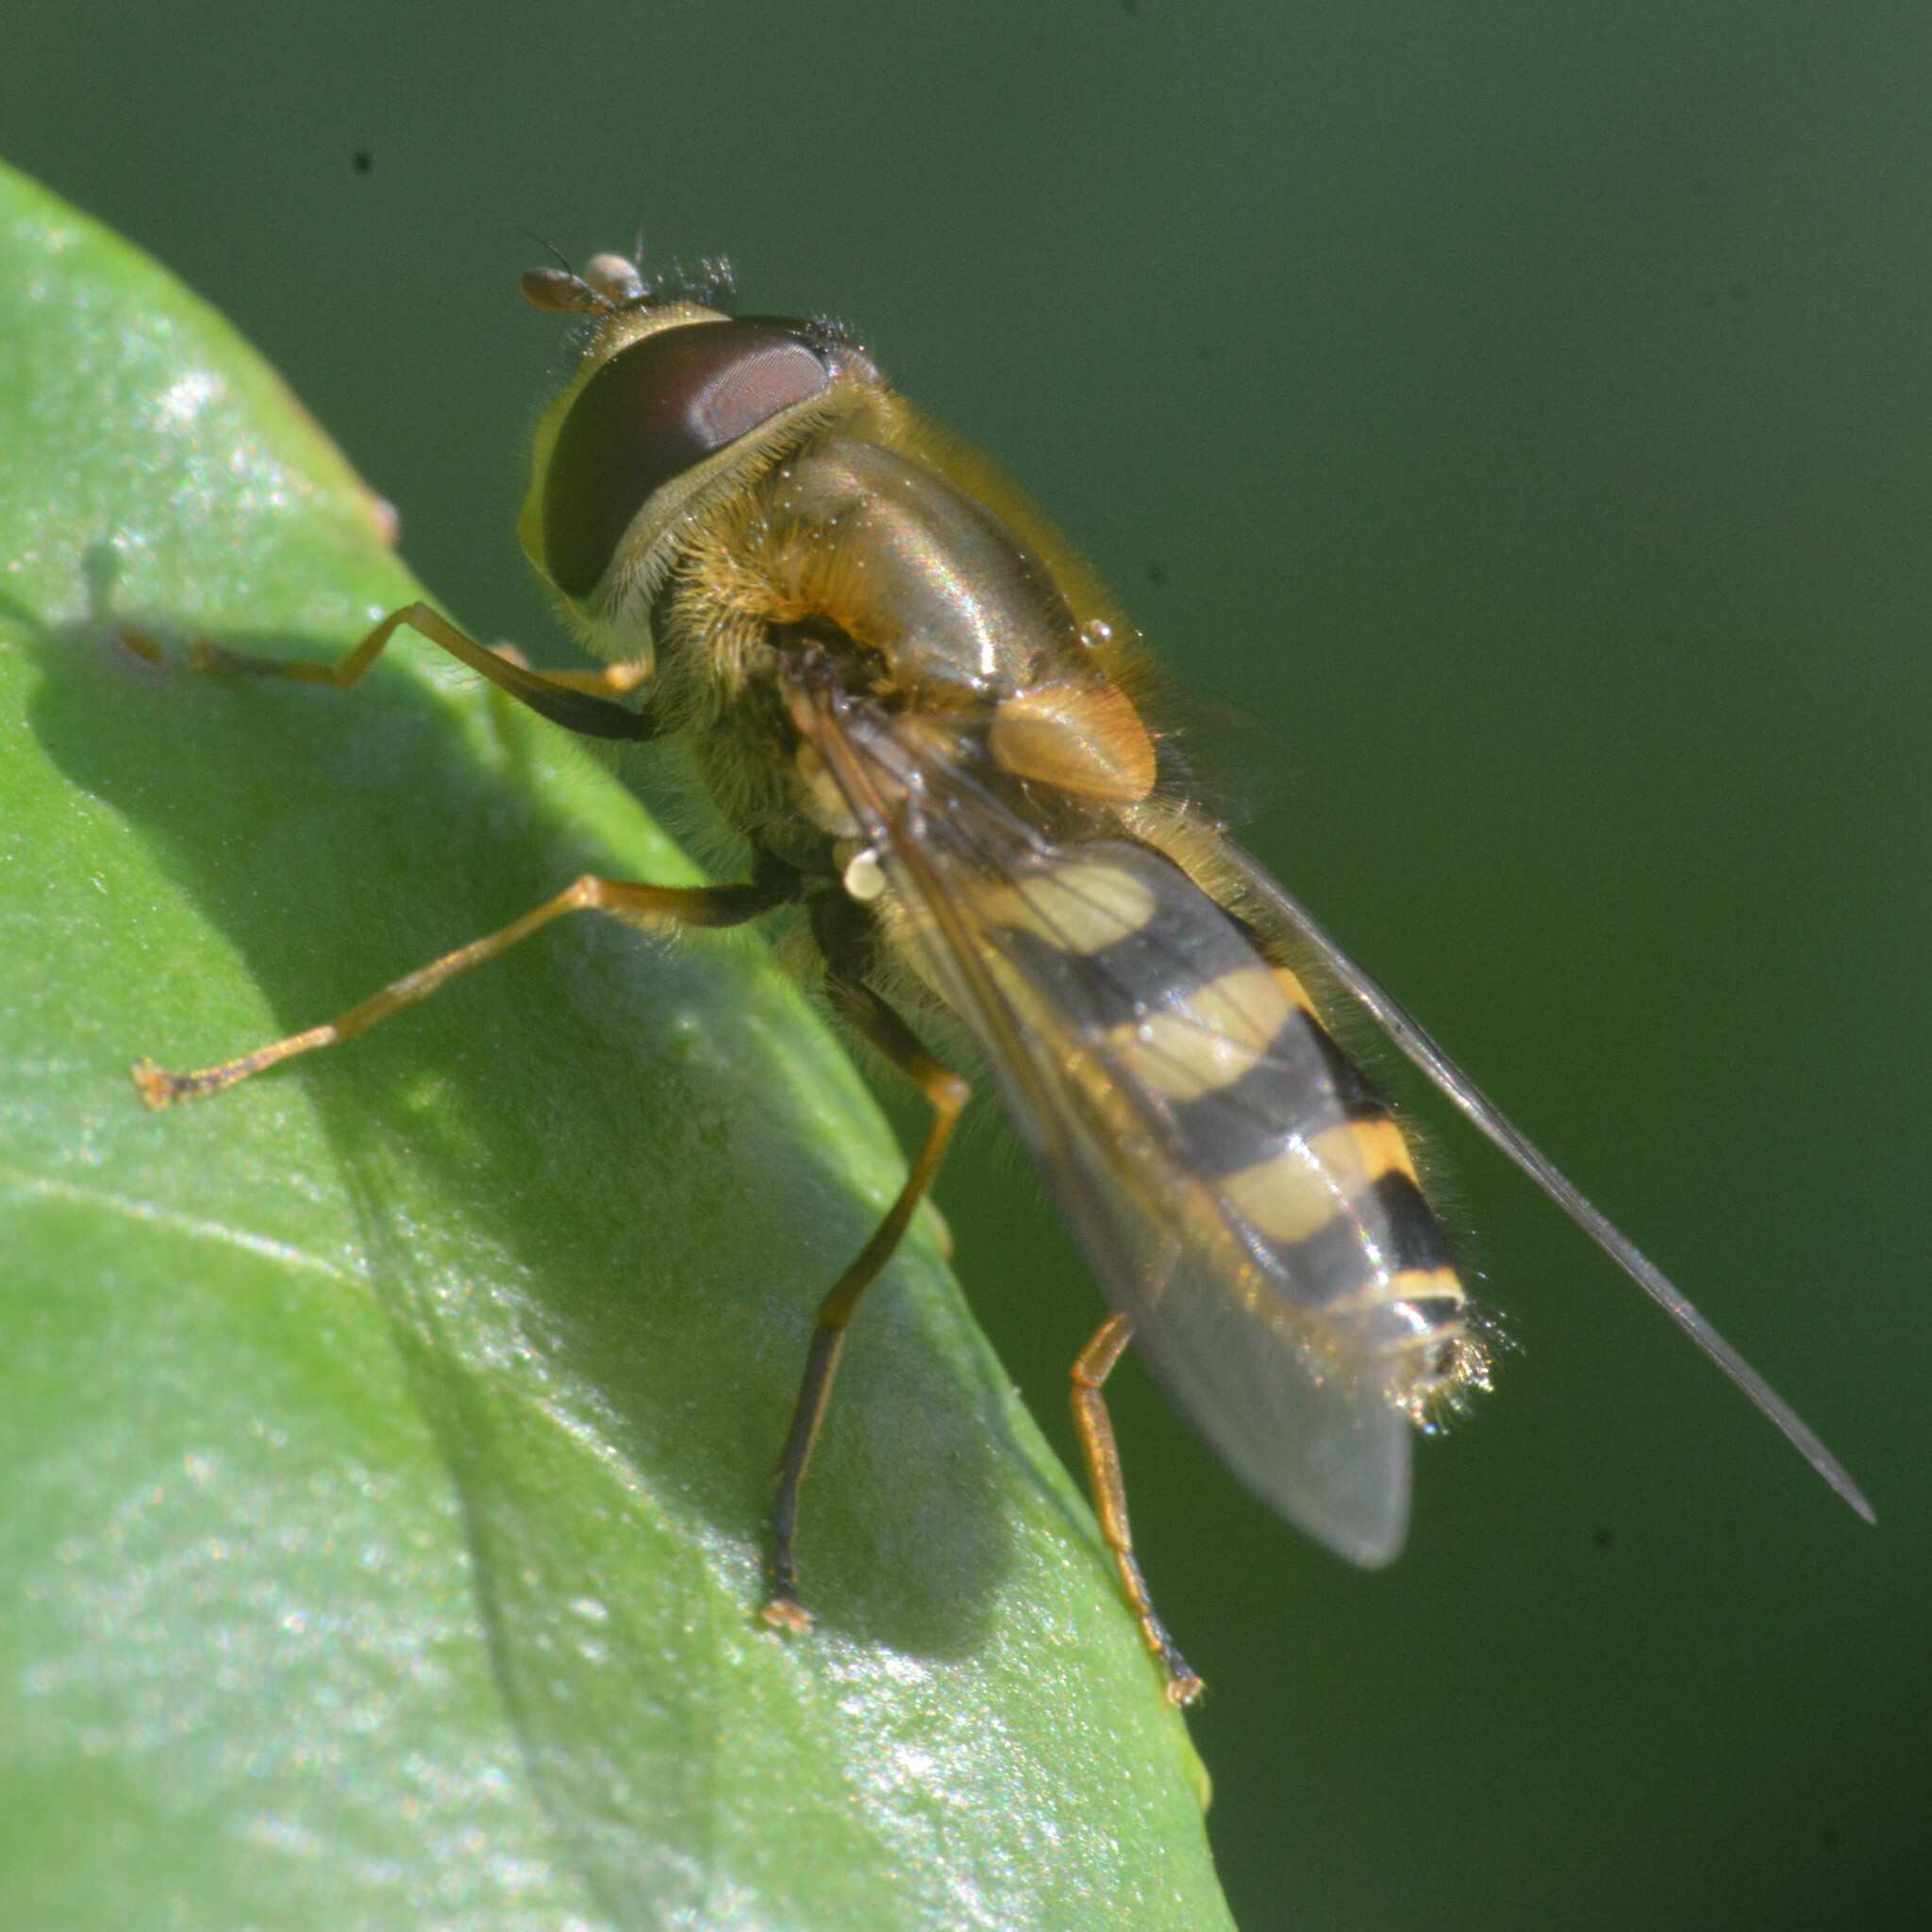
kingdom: Animalia
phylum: Arthropoda
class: Insecta
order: Diptera
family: Syrphidae
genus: Syrphus
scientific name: Syrphus
